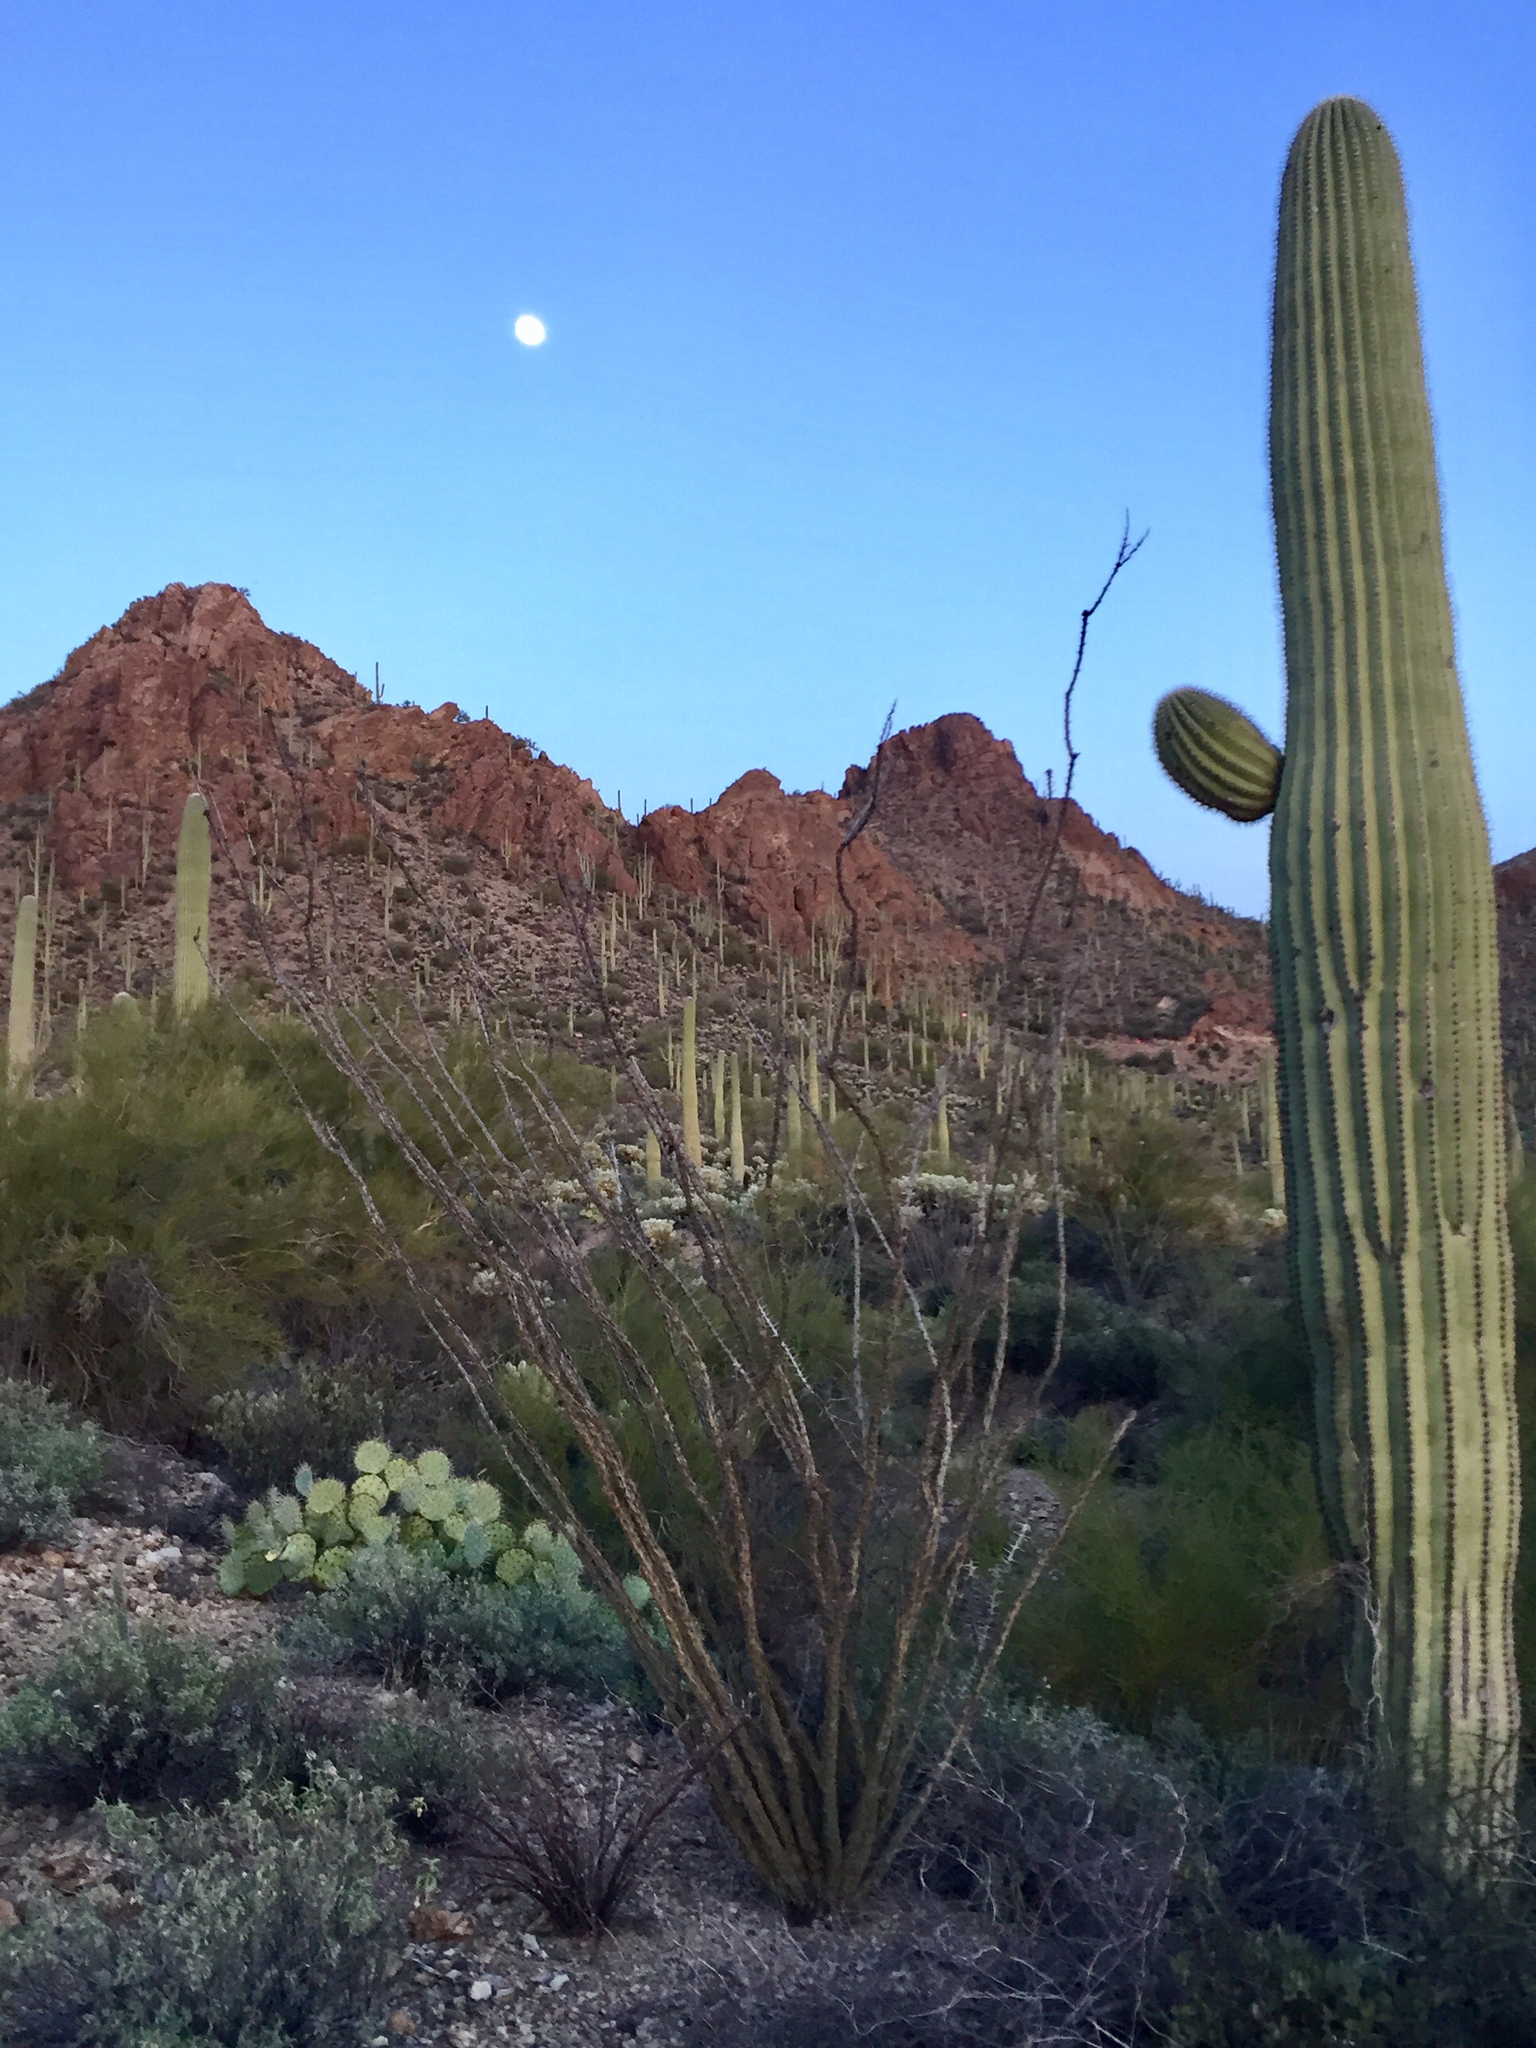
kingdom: Plantae
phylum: Tracheophyta
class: Magnoliopsida
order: Ericales
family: Fouquieriaceae
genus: Fouquieria
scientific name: Fouquieria splendens
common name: Vine-cactus
